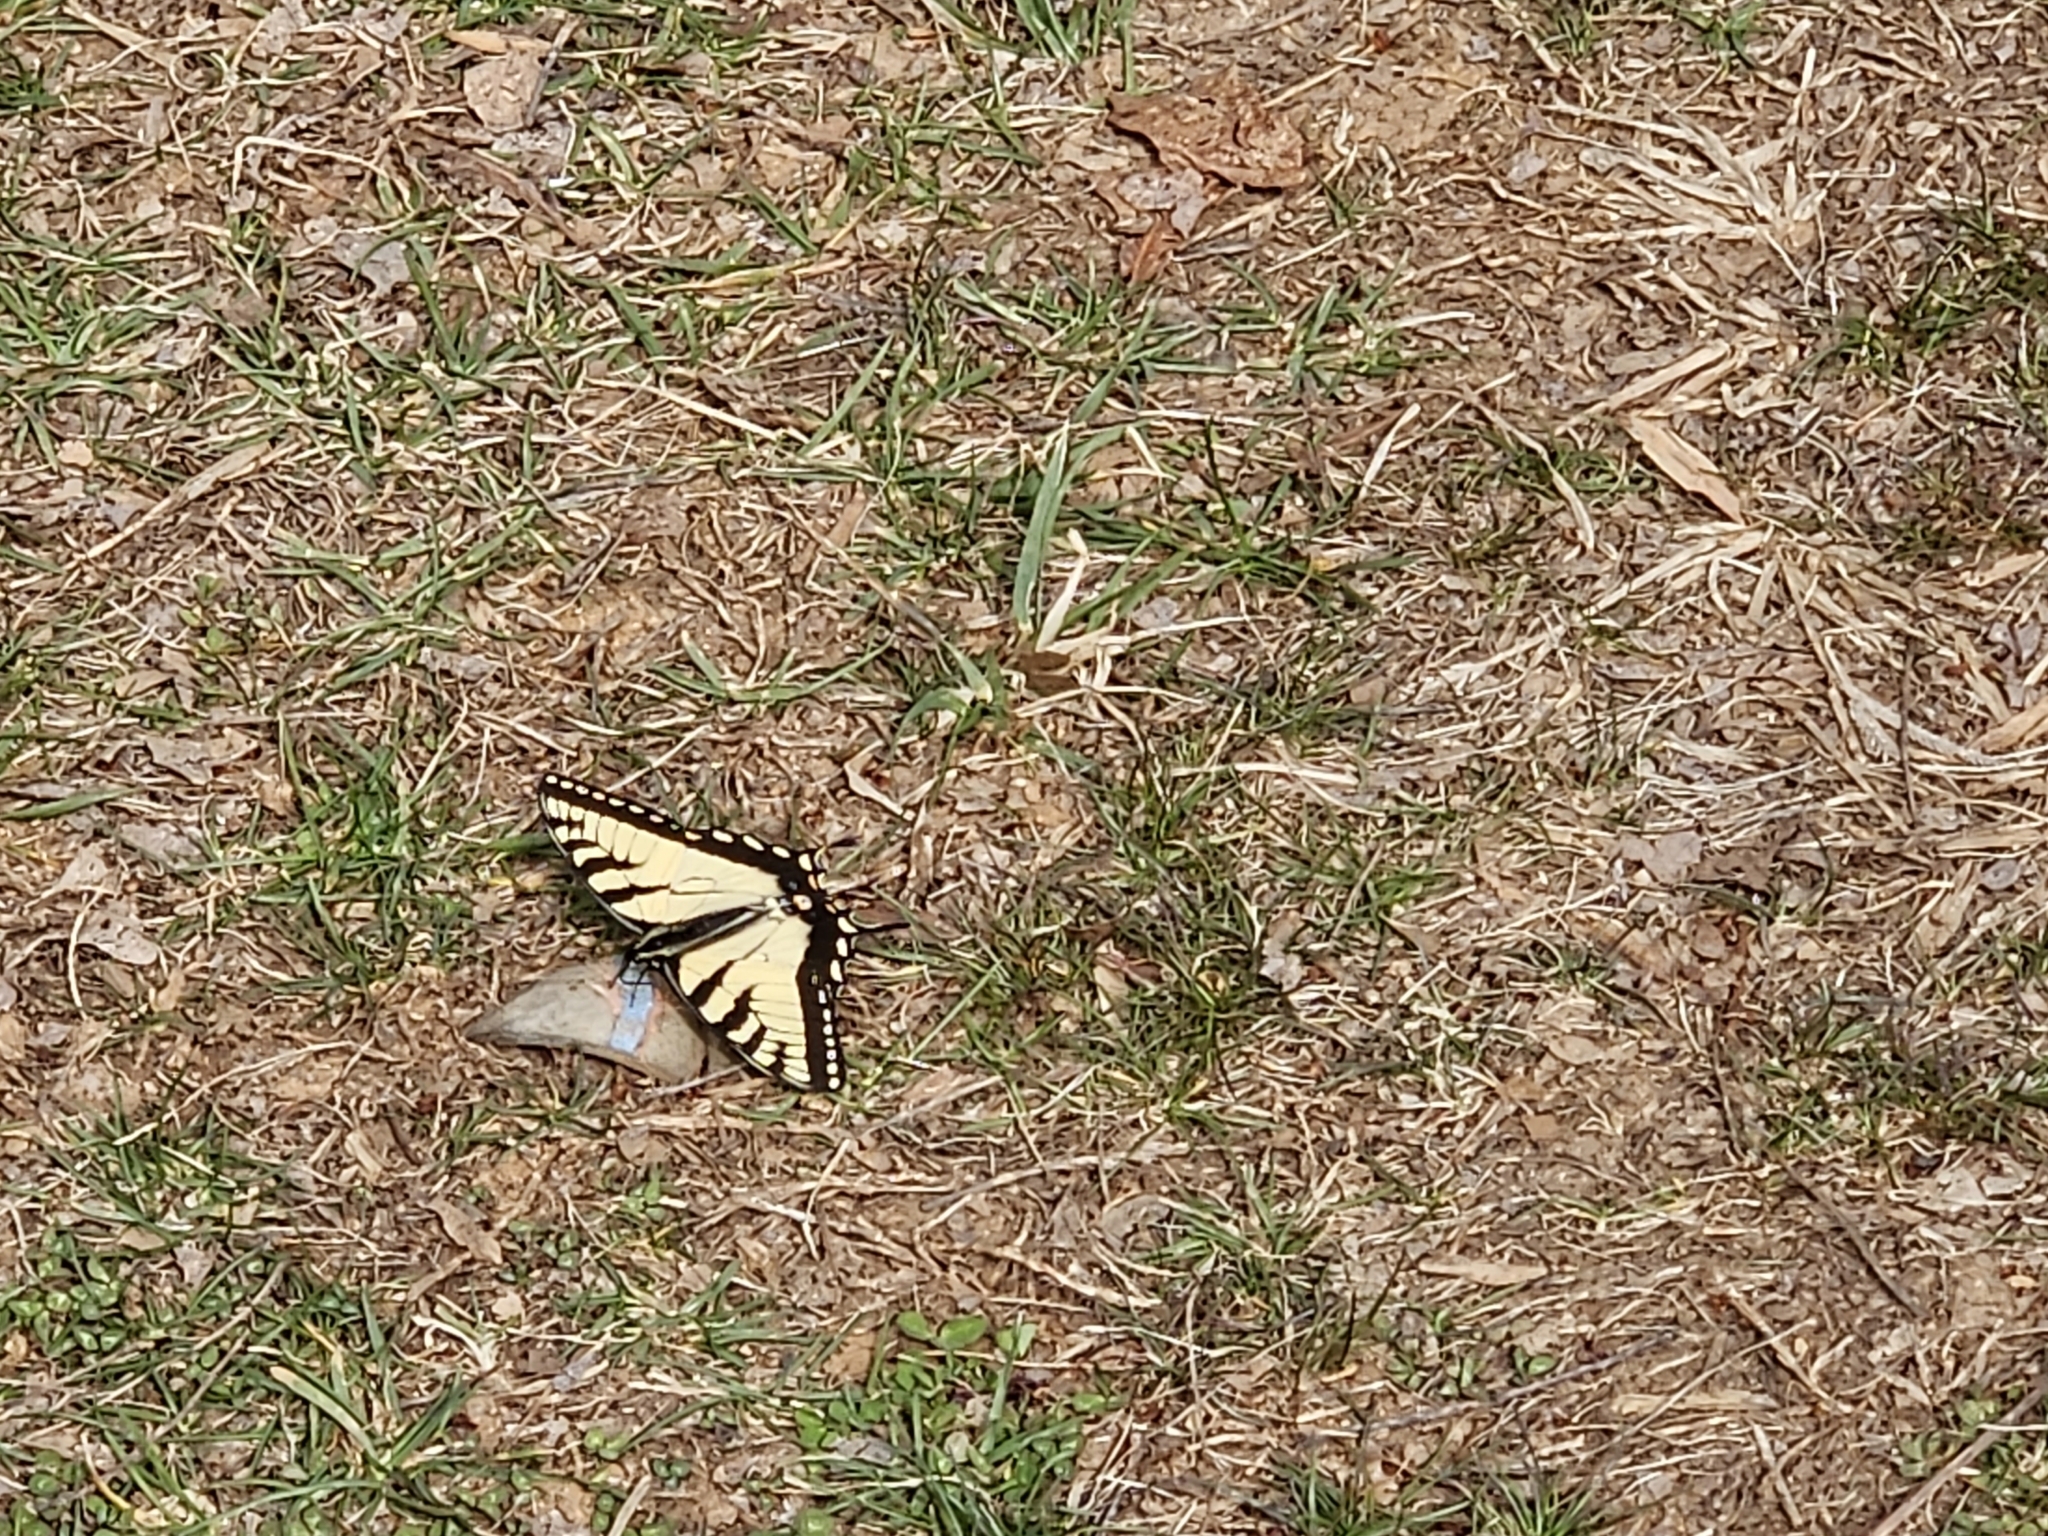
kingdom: Animalia
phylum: Arthropoda
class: Insecta
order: Lepidoptera
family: Papilionidae
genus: Papilio
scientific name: Papilio glaucus
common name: Tiger swallowtail
